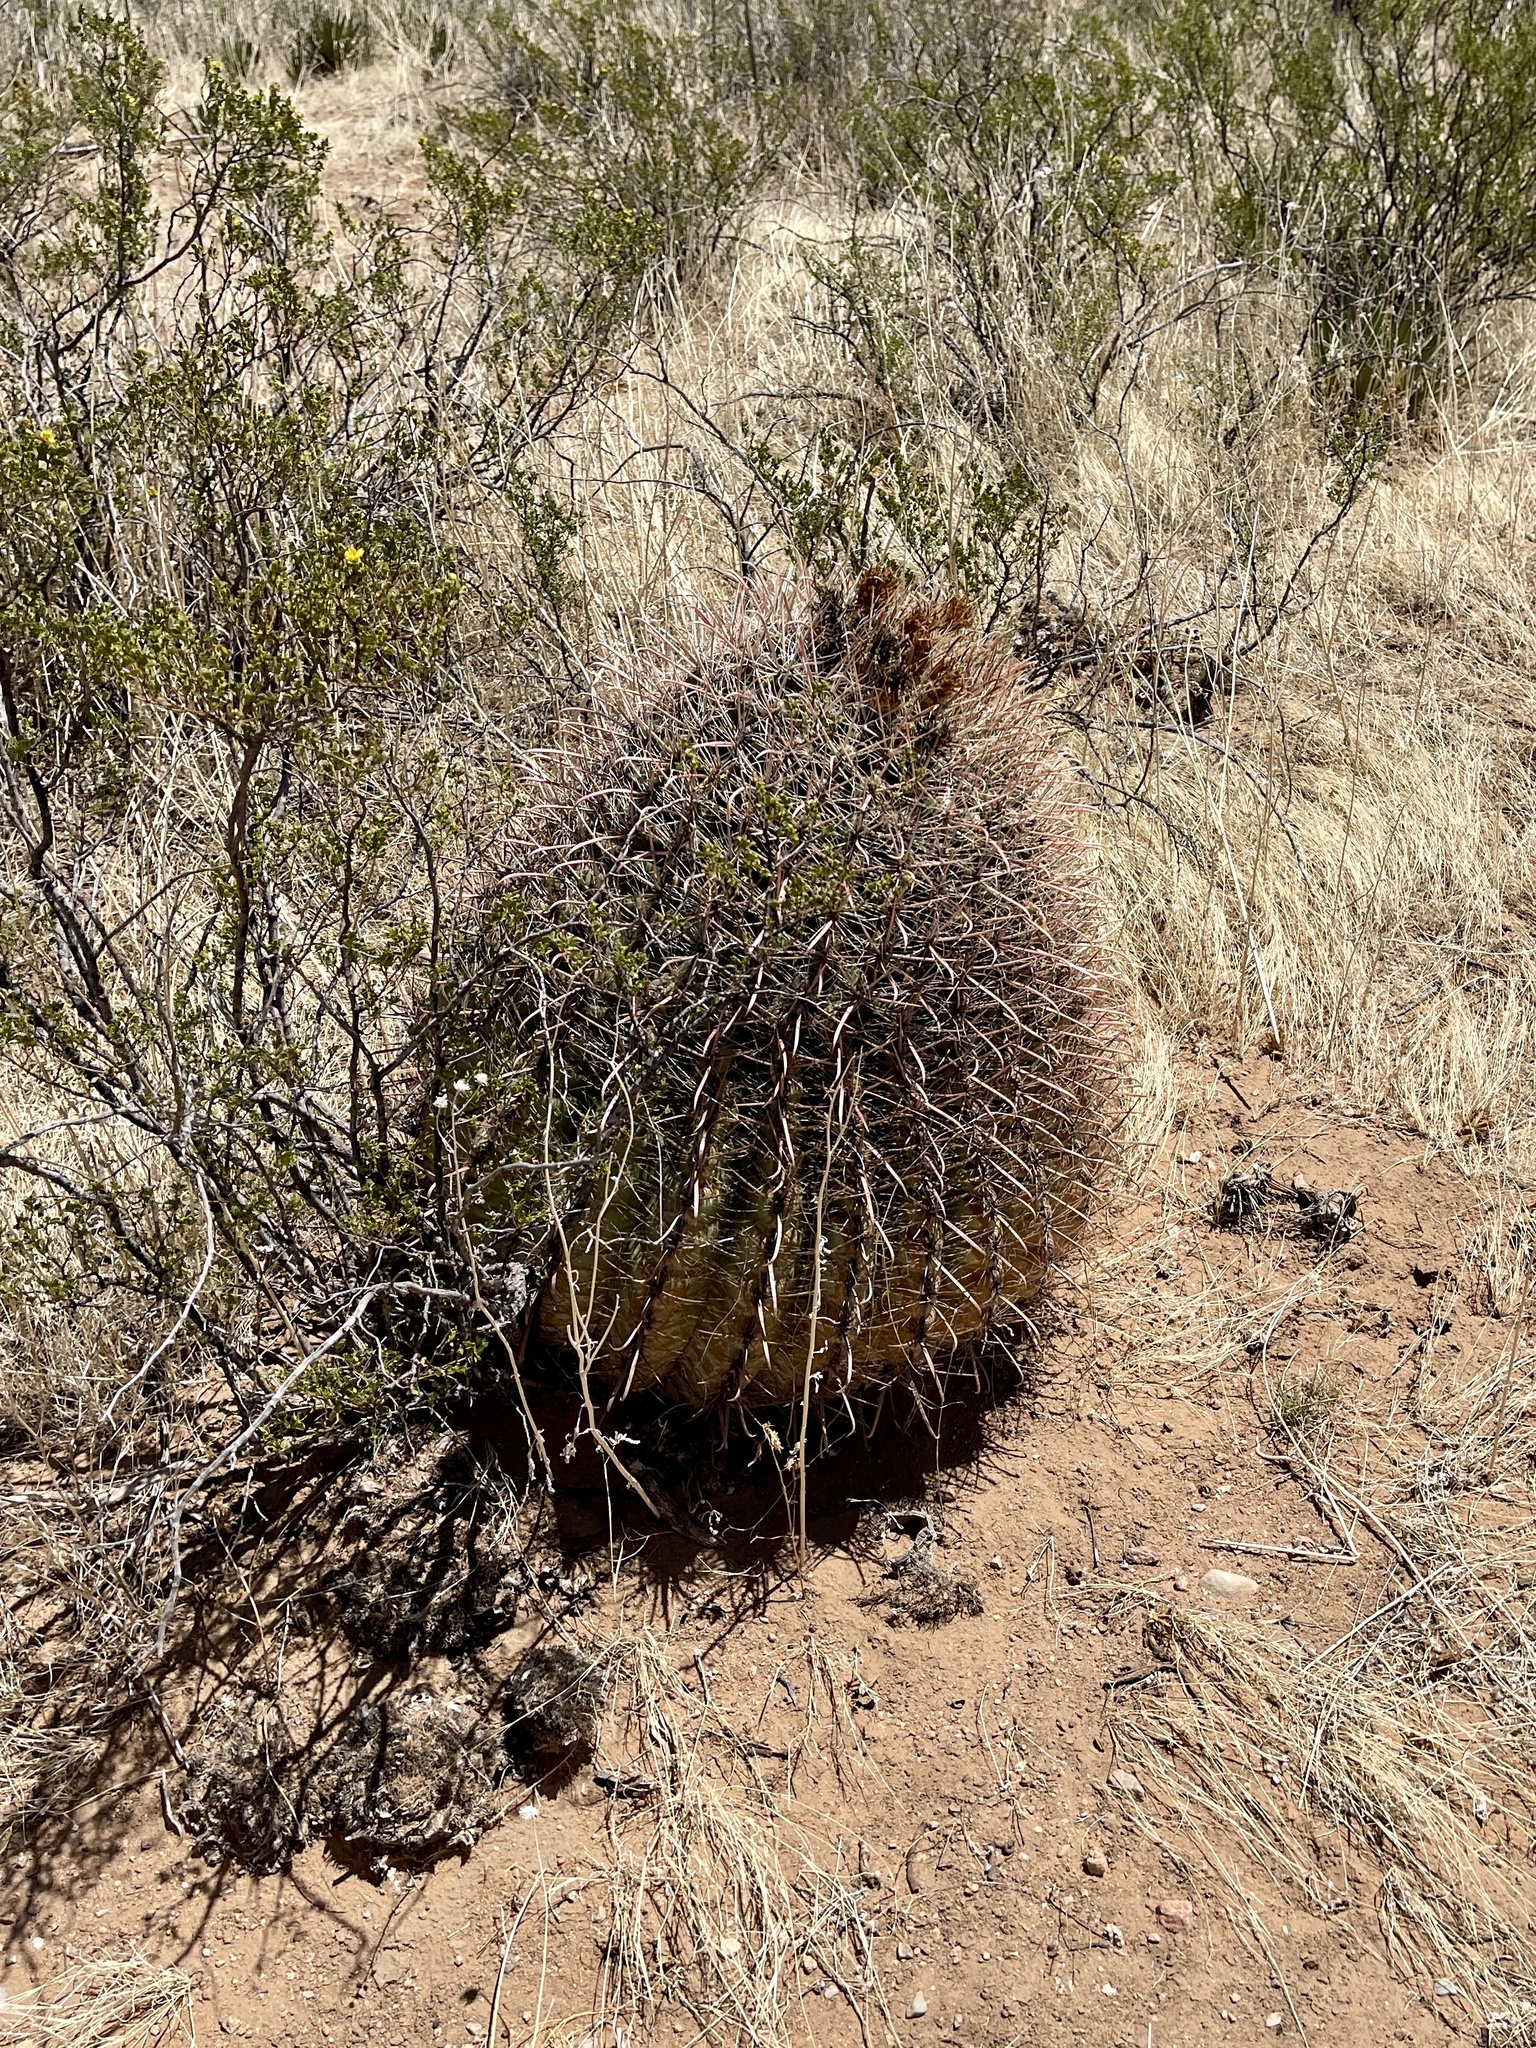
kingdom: Plantae
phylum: Tracheophyta
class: Magnoliopsida
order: Caryophyllales
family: Cactaceae
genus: Ferocactus
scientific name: Ferocactus wislizeni
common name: Candy barrel cactus
